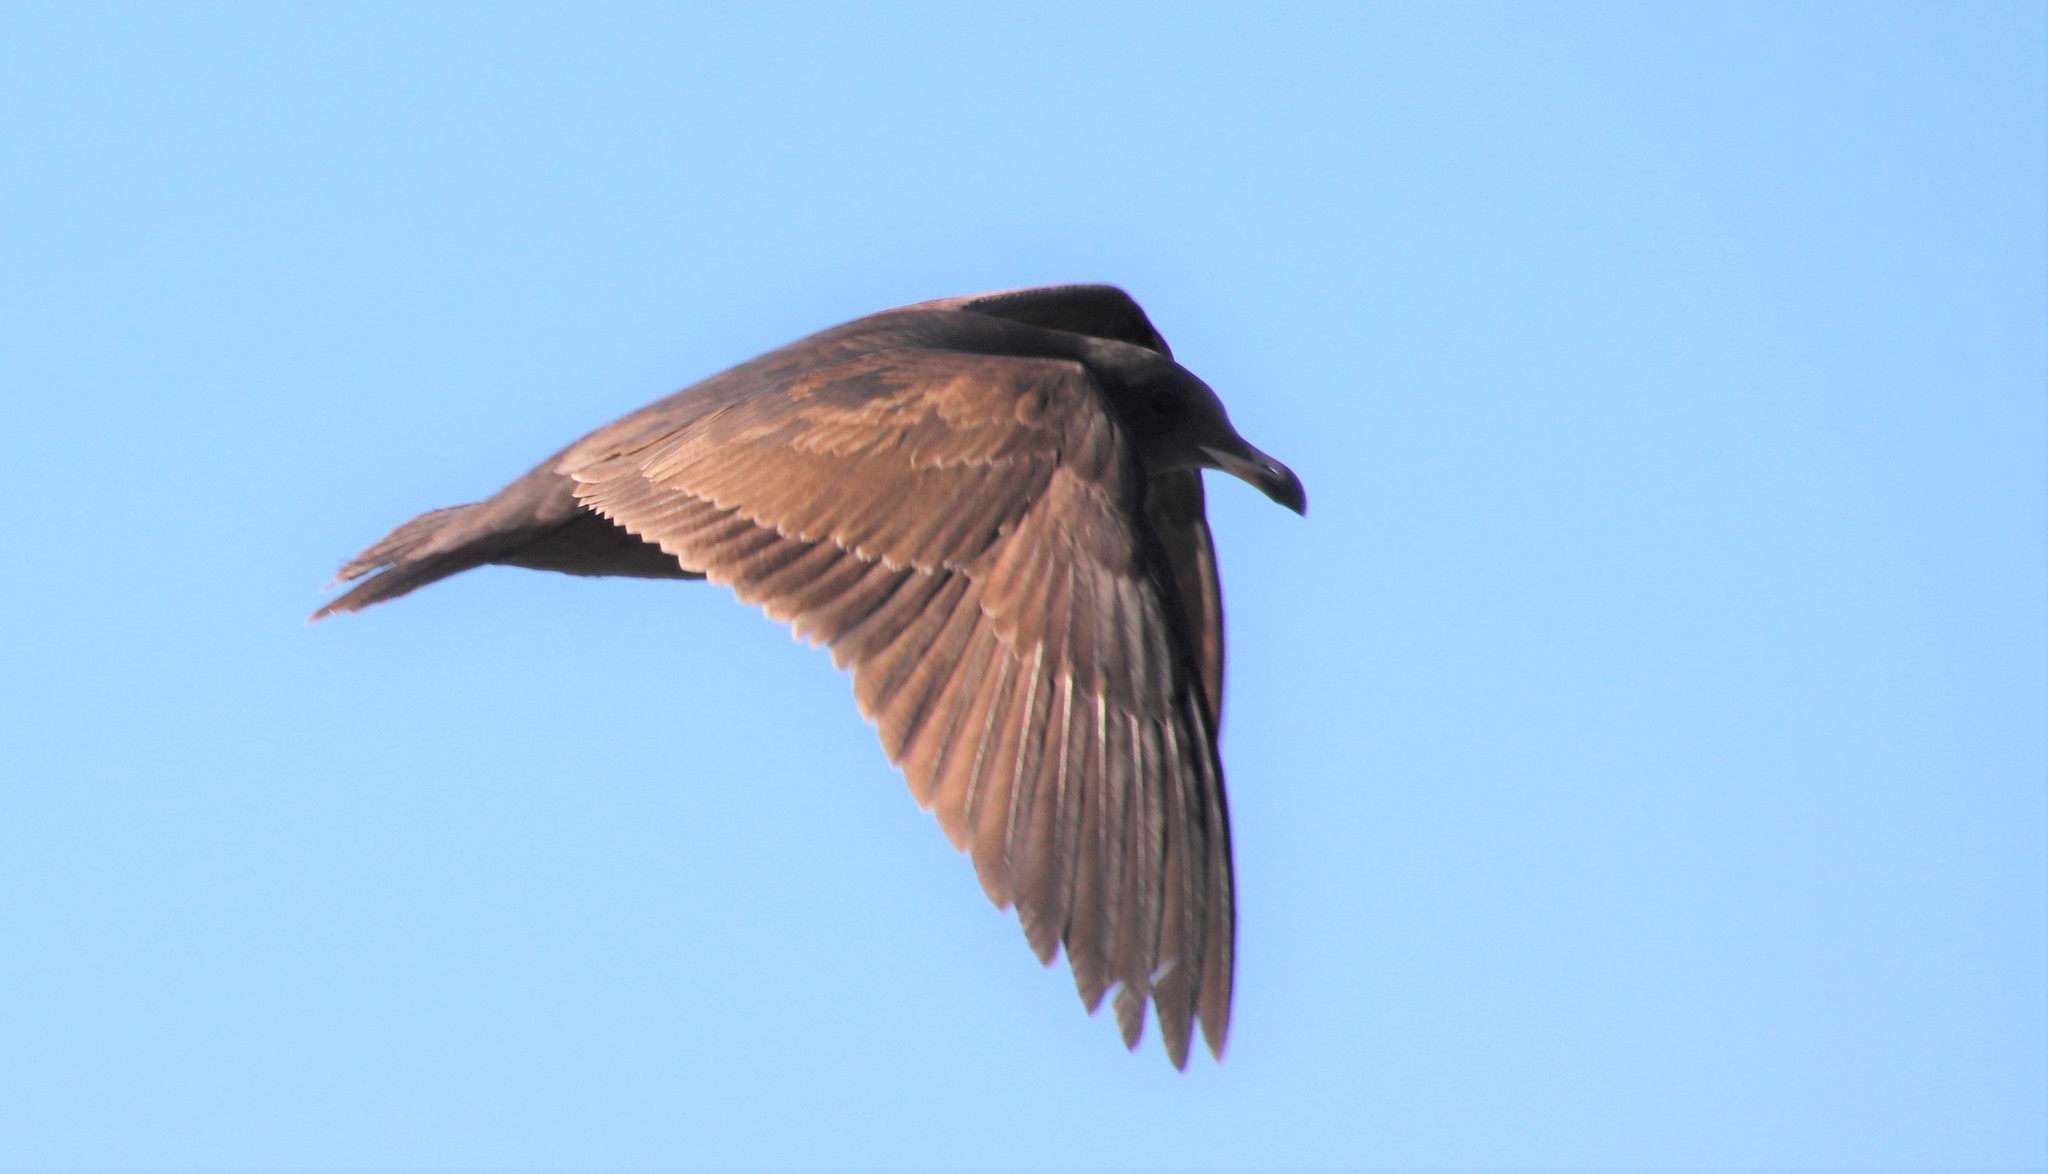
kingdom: Animalia
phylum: Chordata
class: Aves
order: Charadriiformes
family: Laridae
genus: Larus
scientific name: Larus heermanni
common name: Heermann's gull
